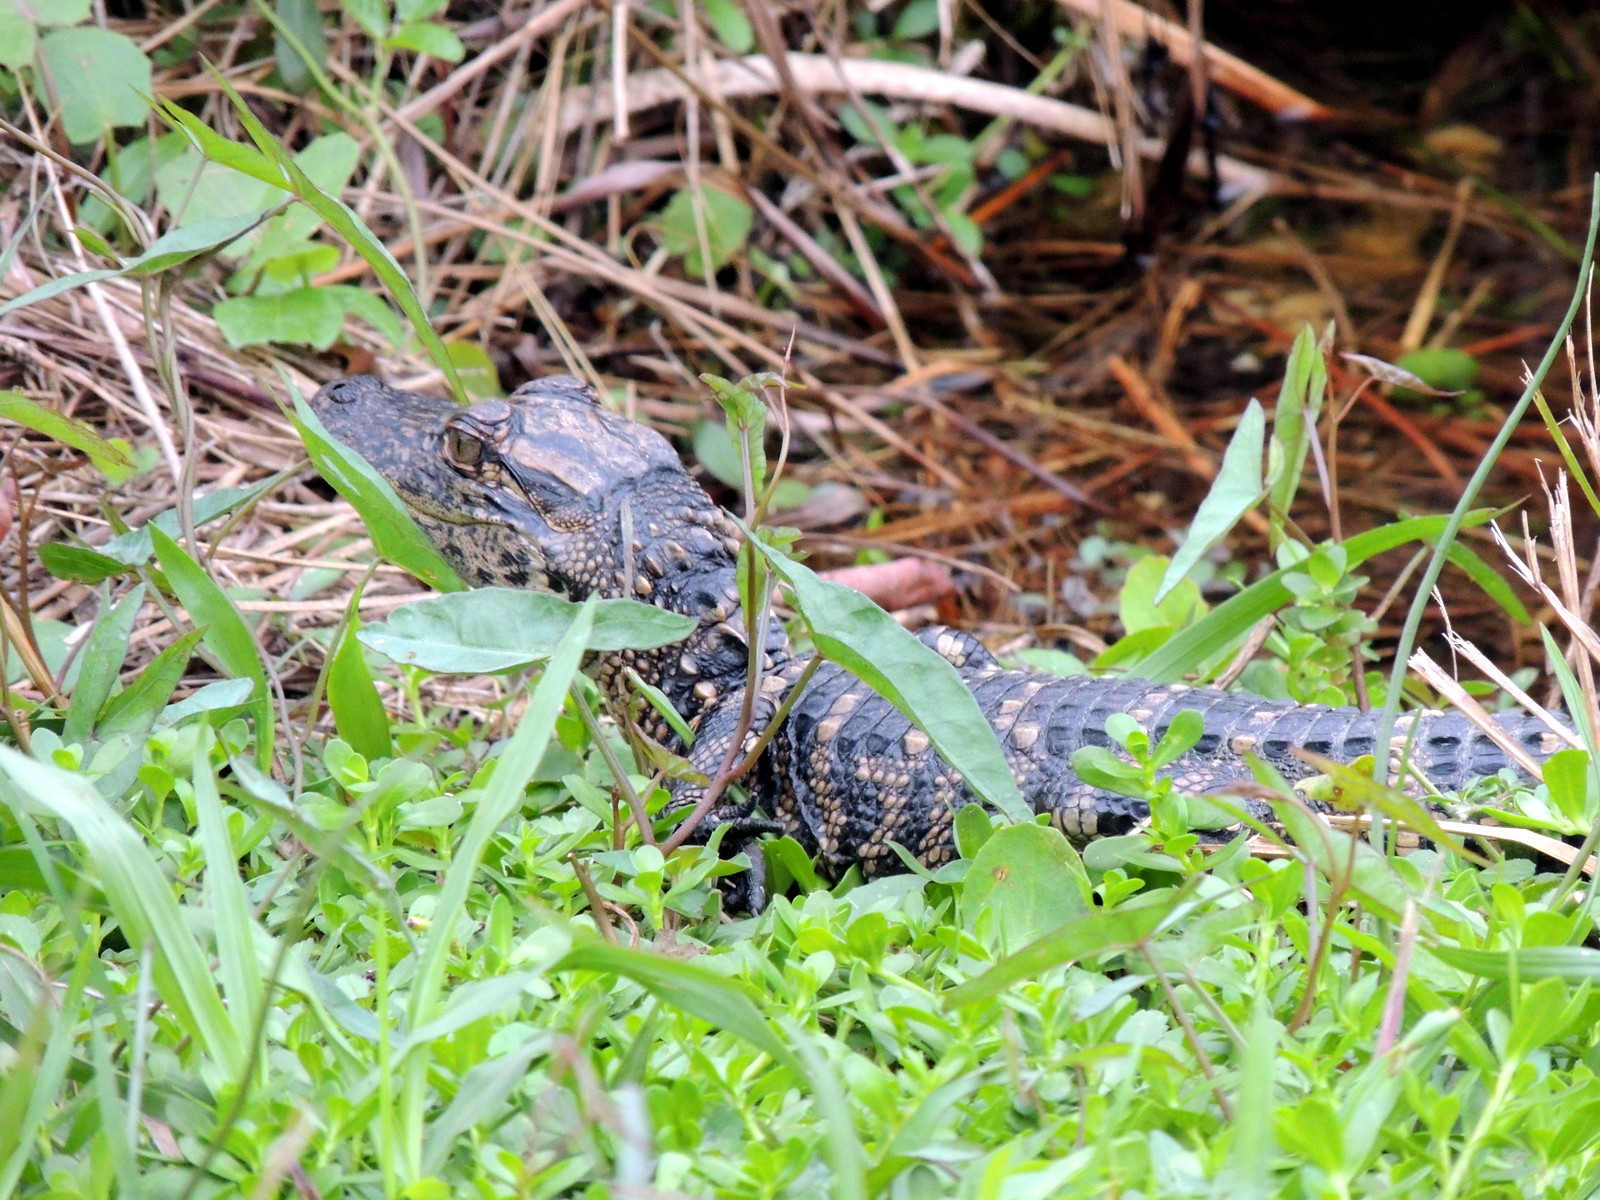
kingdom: Animalia
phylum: Chordata
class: Crocodylia
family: Alligatoridae
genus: Alligator
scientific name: Alligator mississippiensis
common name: American alligator
